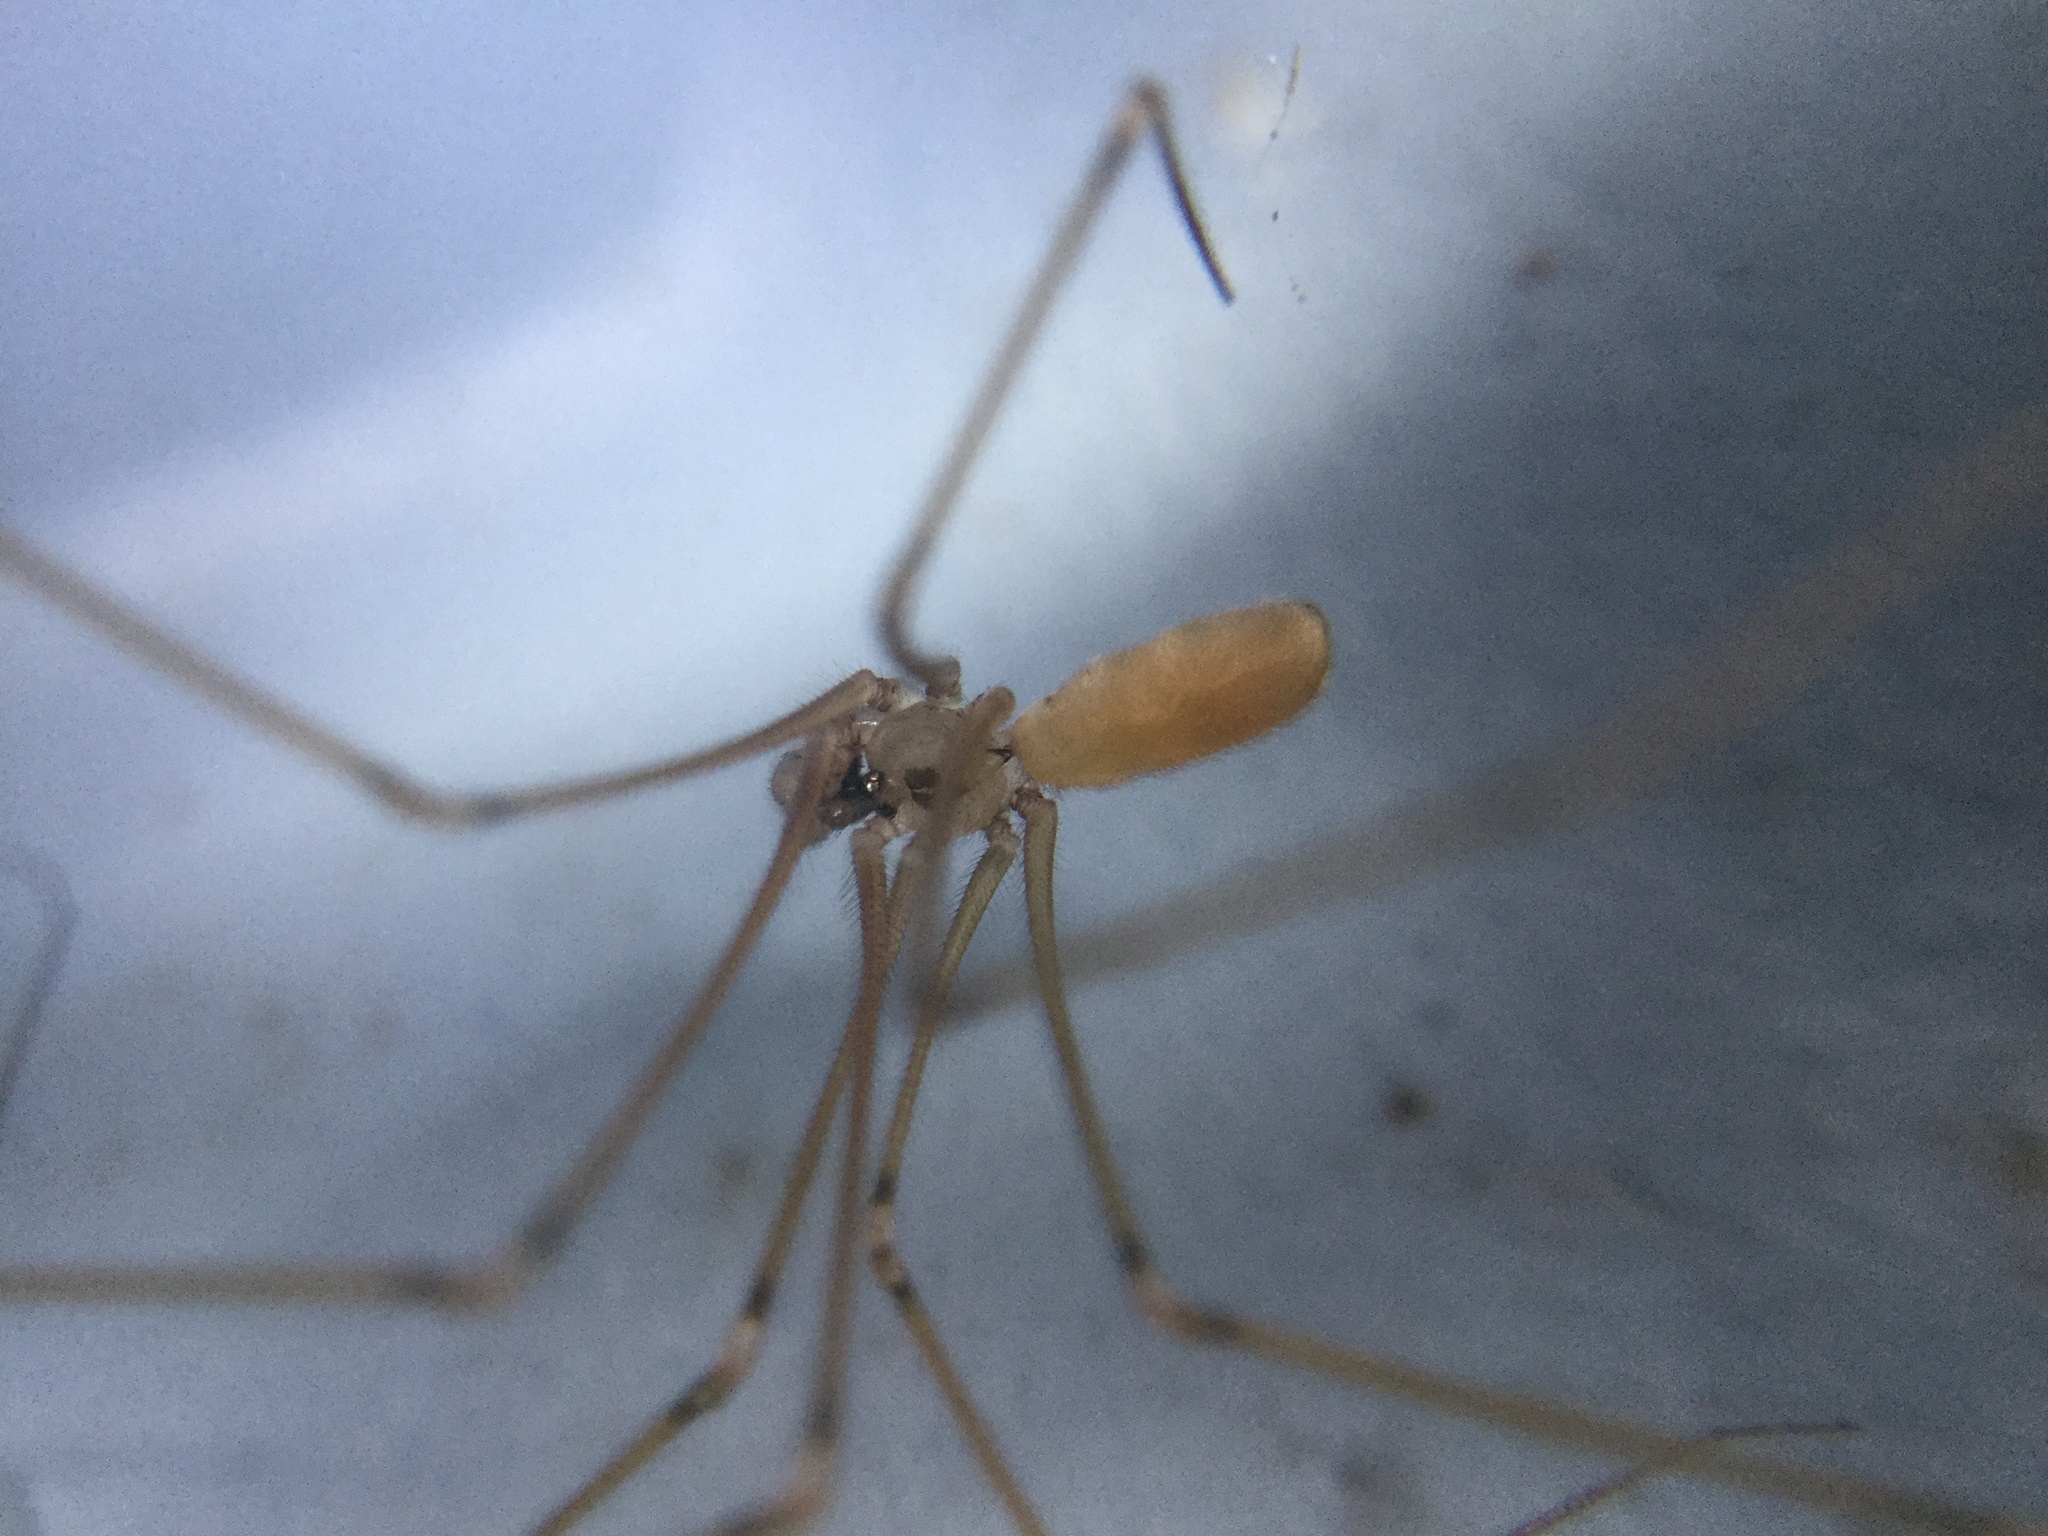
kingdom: Animalia
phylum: Arthropoda
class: Arachnida
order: Araneae
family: Pholcidae
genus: Pholcus
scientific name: Pholcus phalangioides
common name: Longbodied cellar spider
